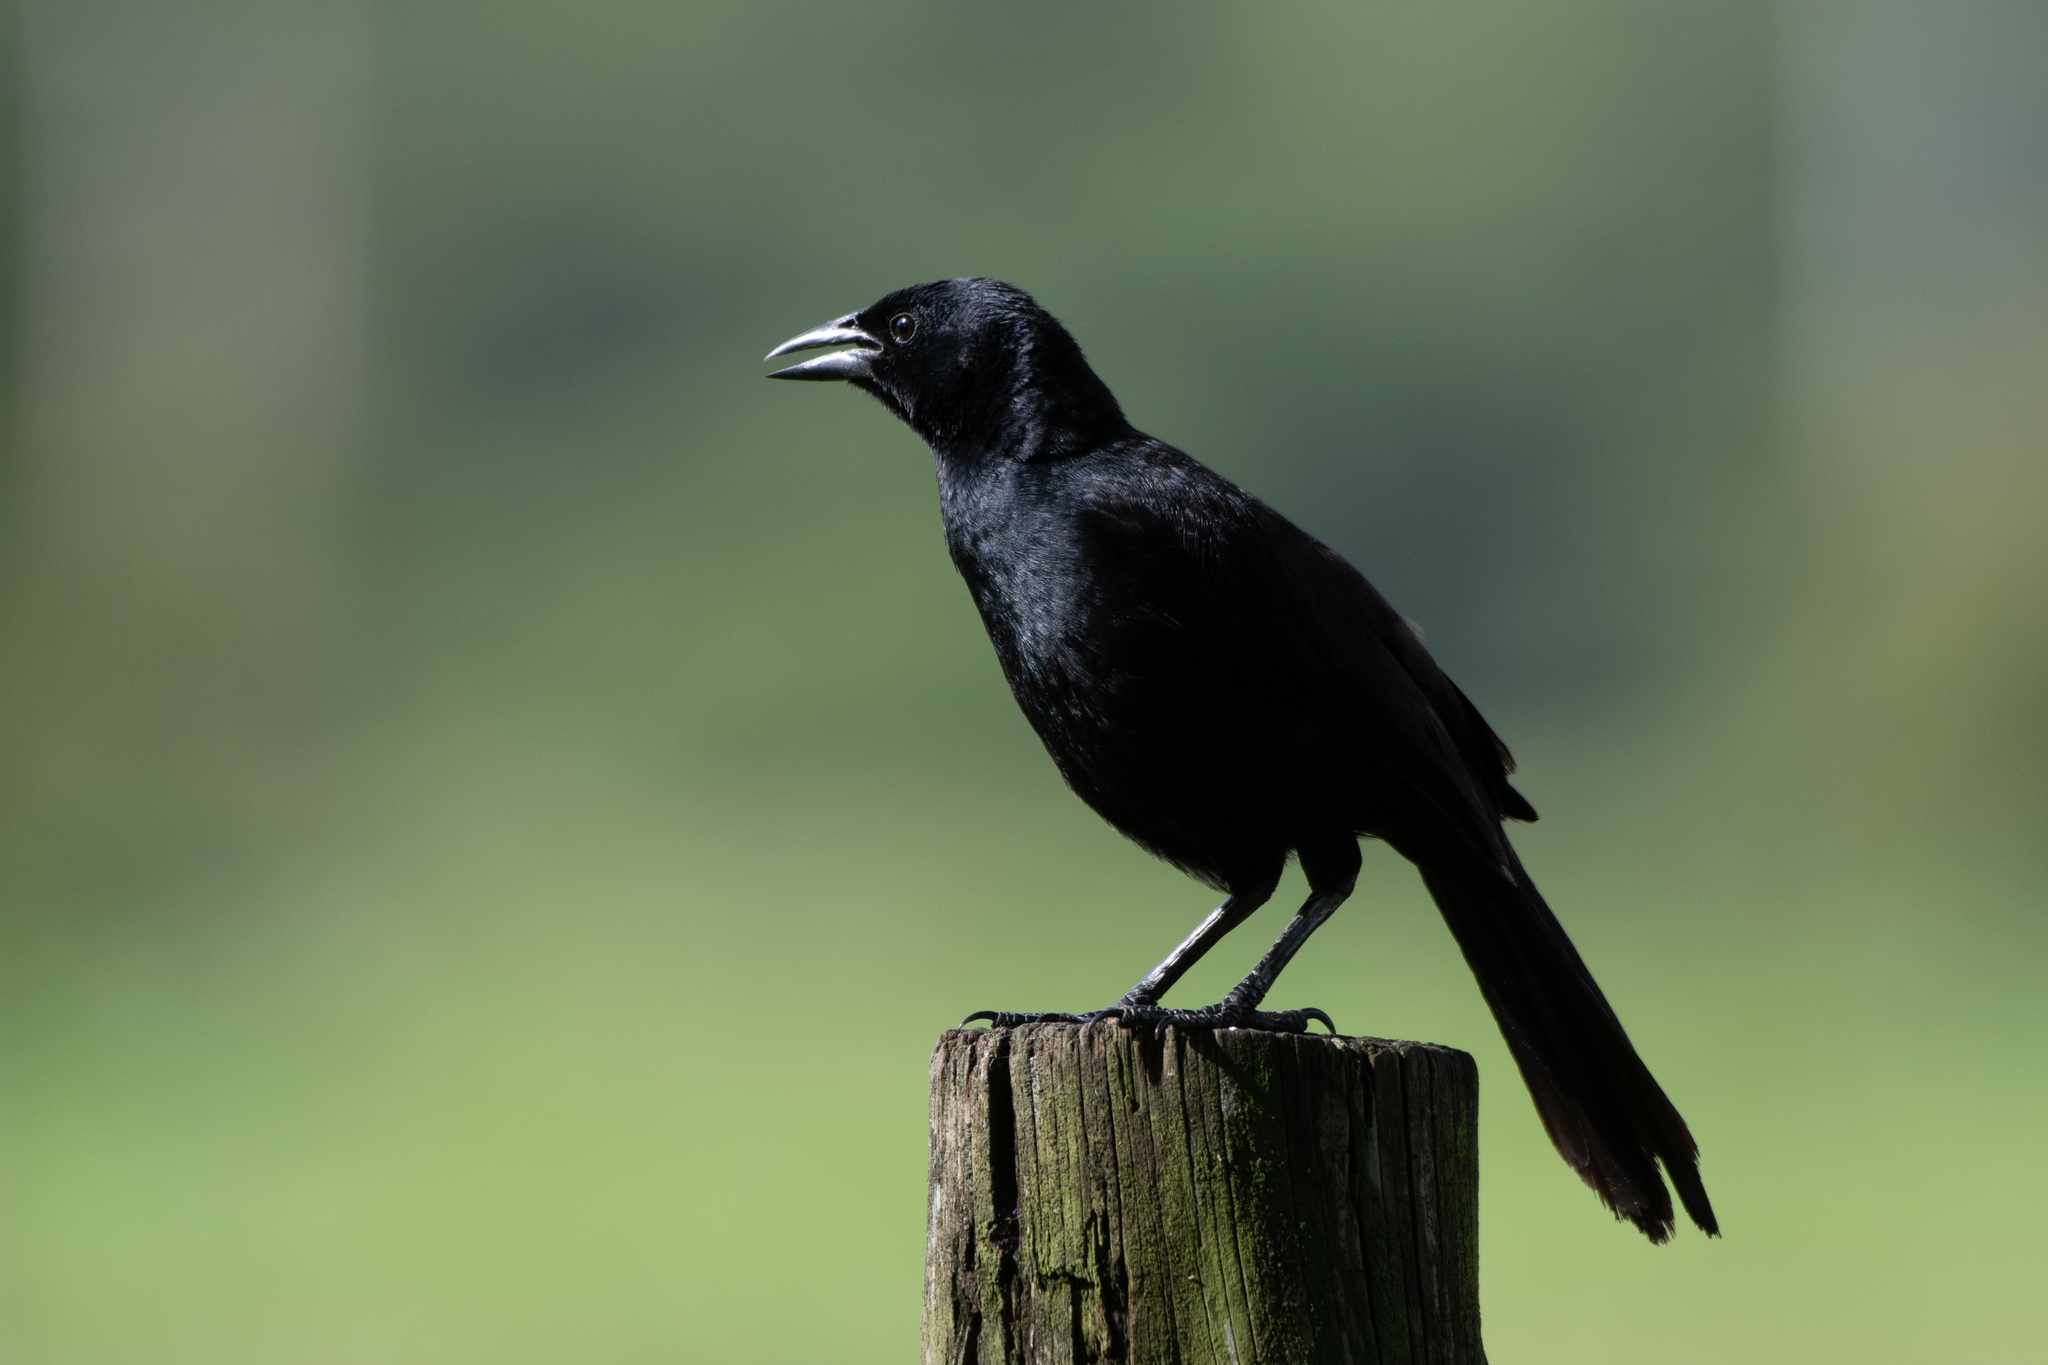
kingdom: Animalia
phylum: Chordata
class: Aves
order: Passeriformes
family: Icteridae
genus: Dives
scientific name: Dives dives
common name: Melodious blackbird
